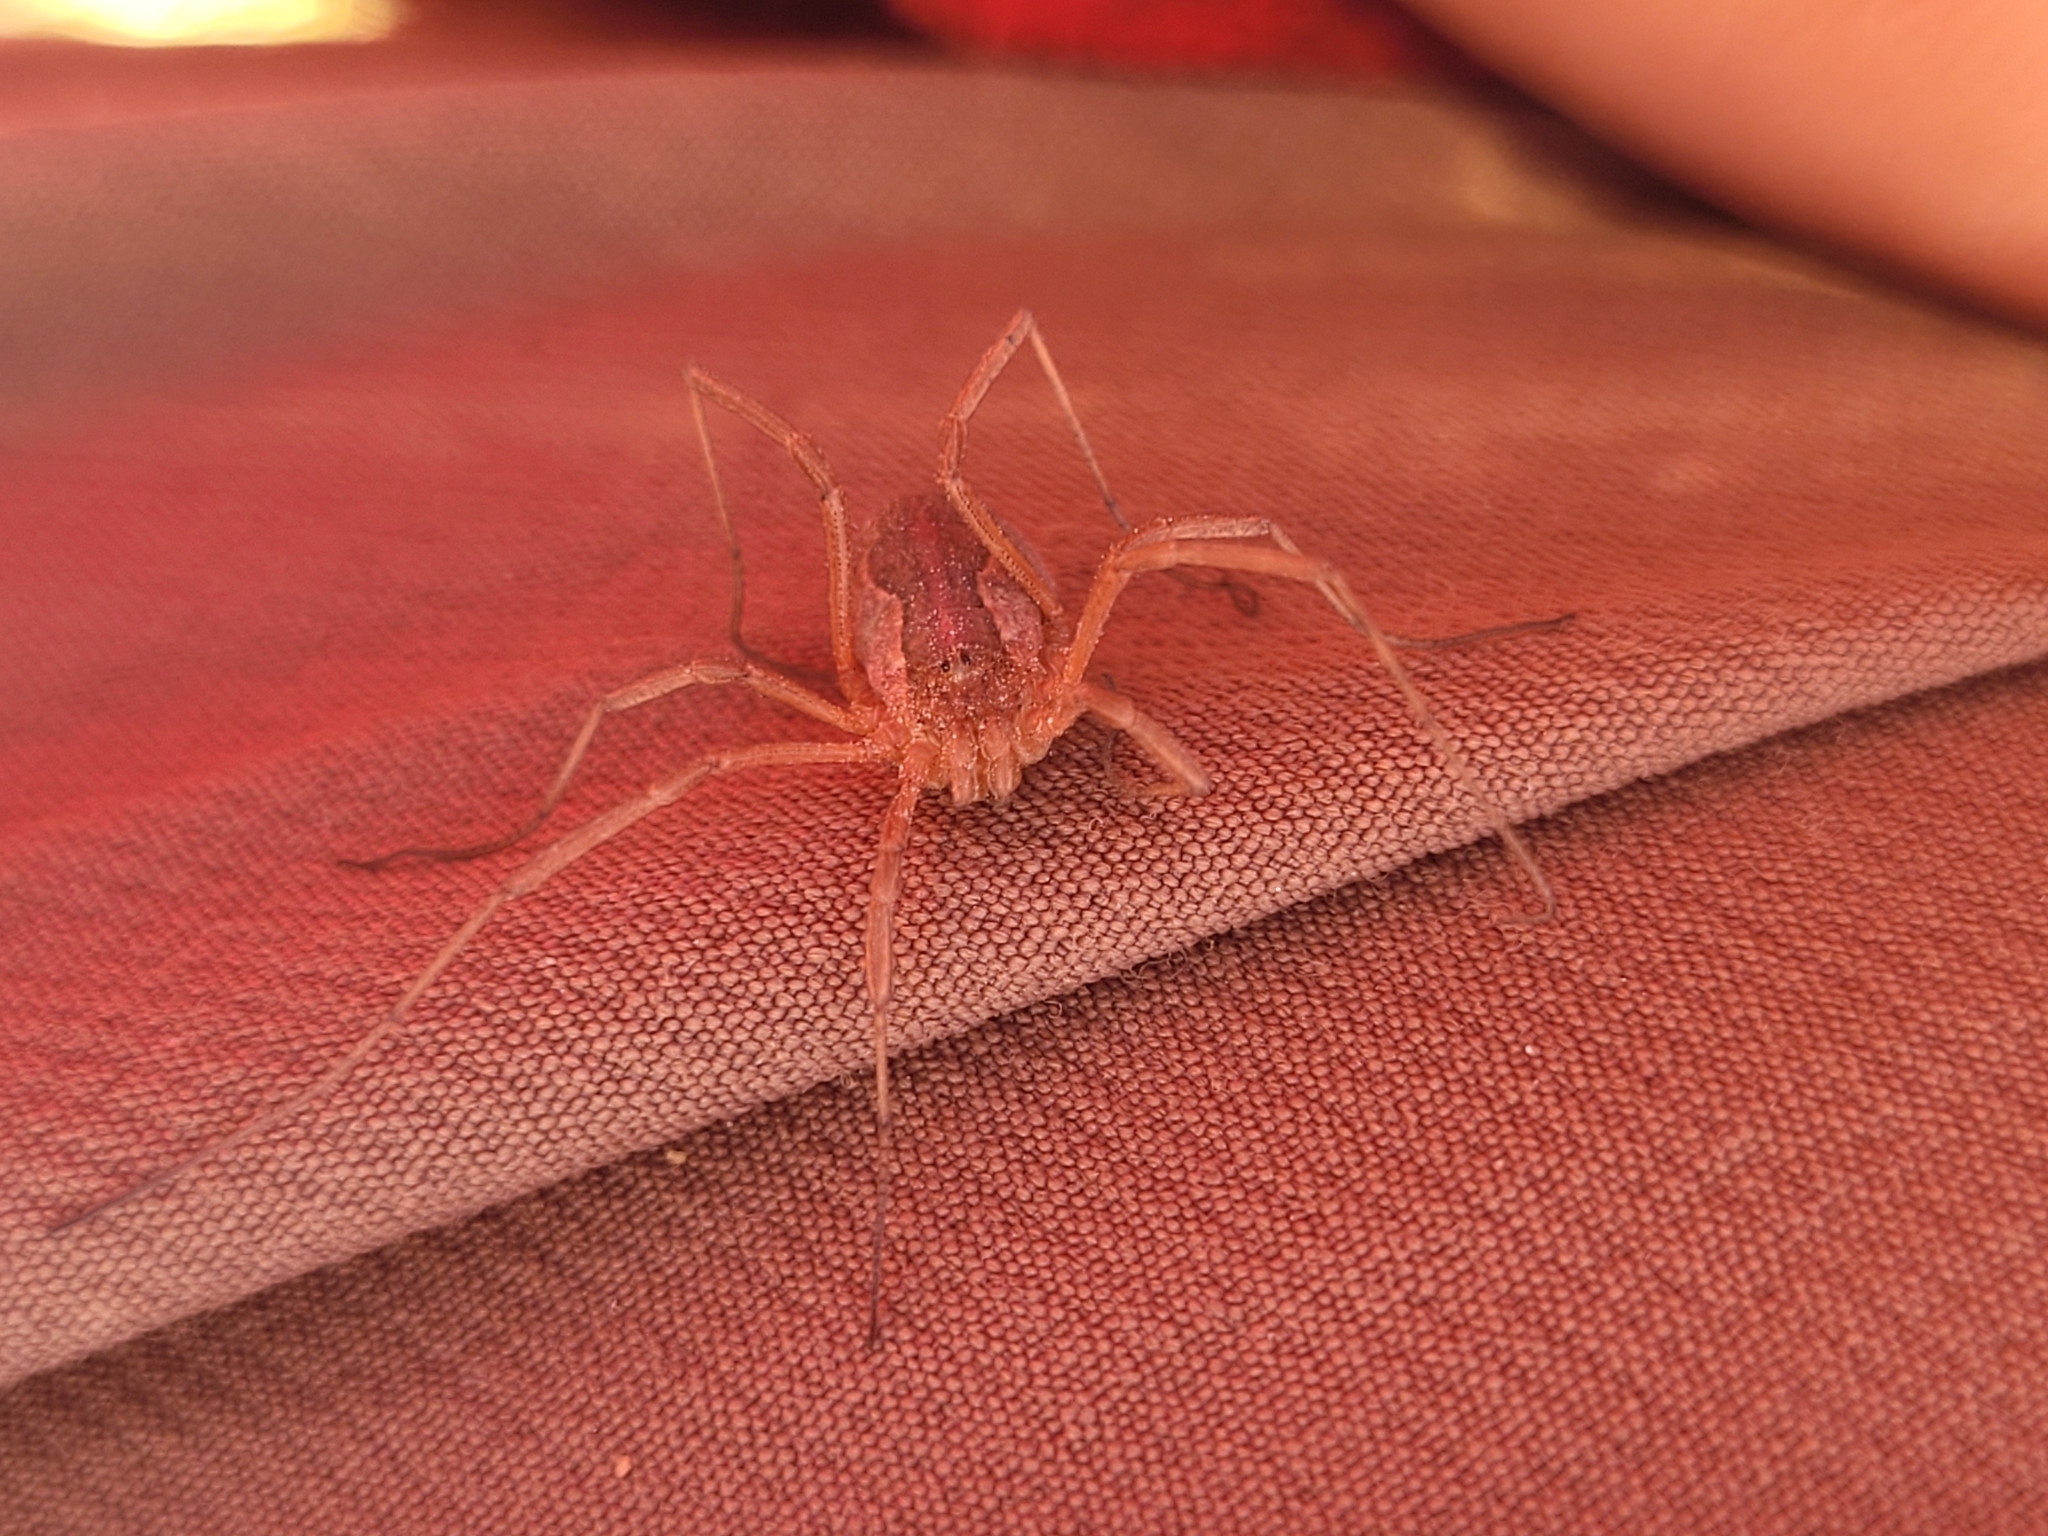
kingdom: Animalia
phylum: Arthropoda
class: Arachnida
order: Opiliones
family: Phalangiidae
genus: Mitopus
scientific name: Mitopus morio
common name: Saddleback harvestman
